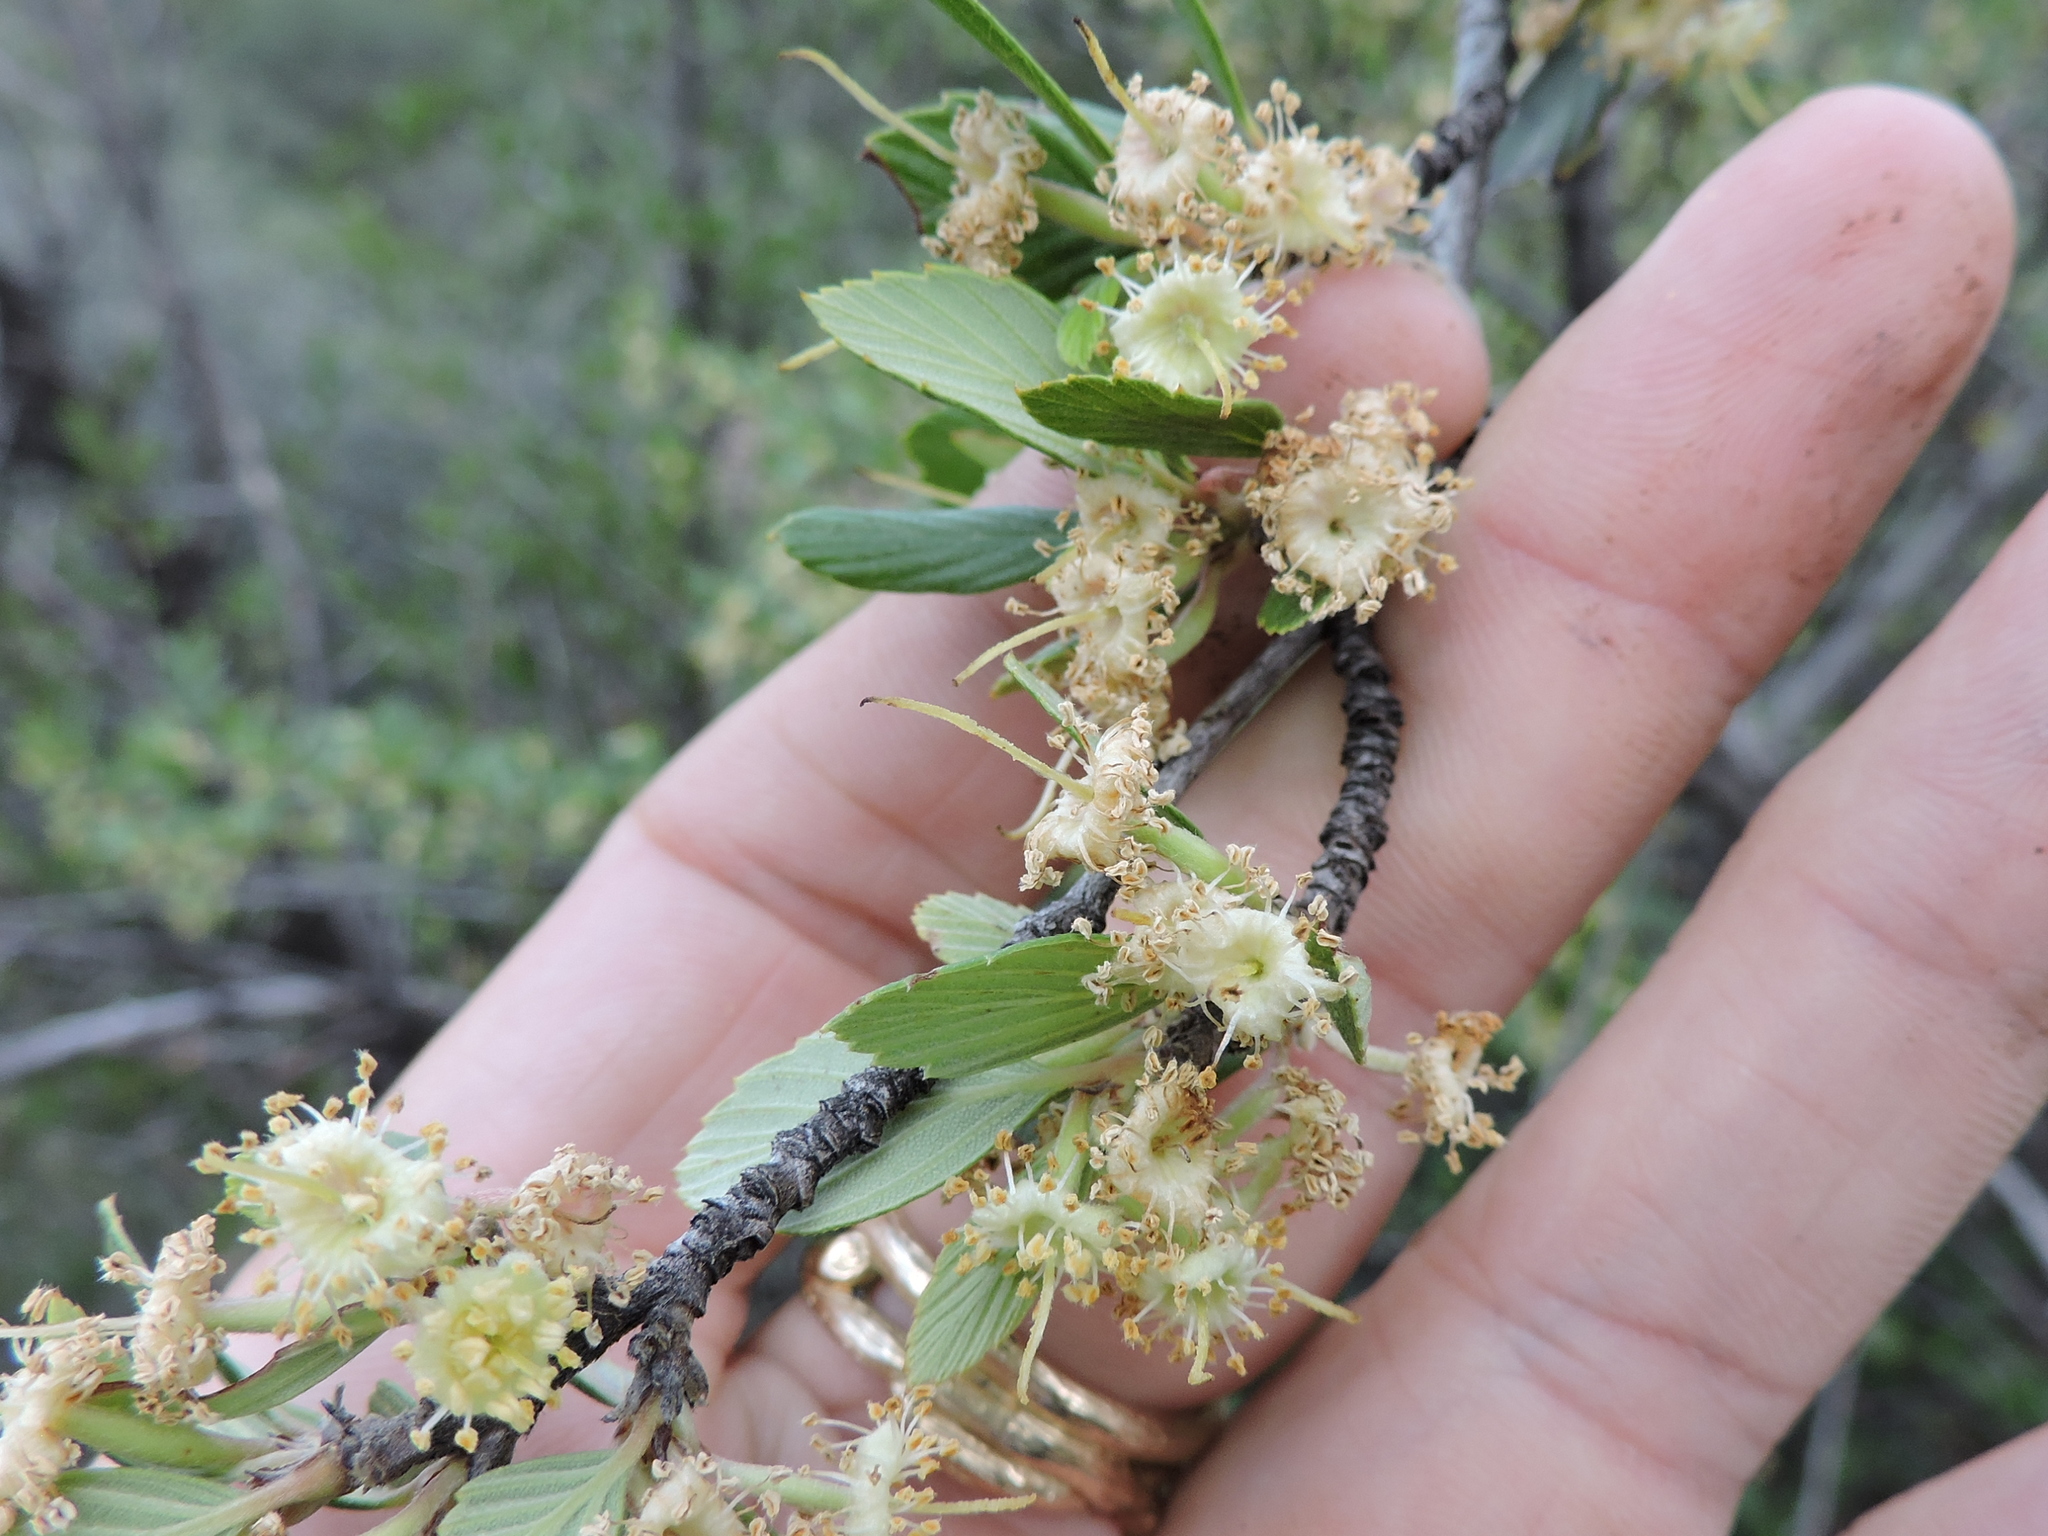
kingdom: Plantae
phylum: Tracheophyta
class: Magnoliopsida
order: Rosales
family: Rosaceae
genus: Cercocarpus
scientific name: Cercocarpus montanus
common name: Alder-leaf cercocarpus
